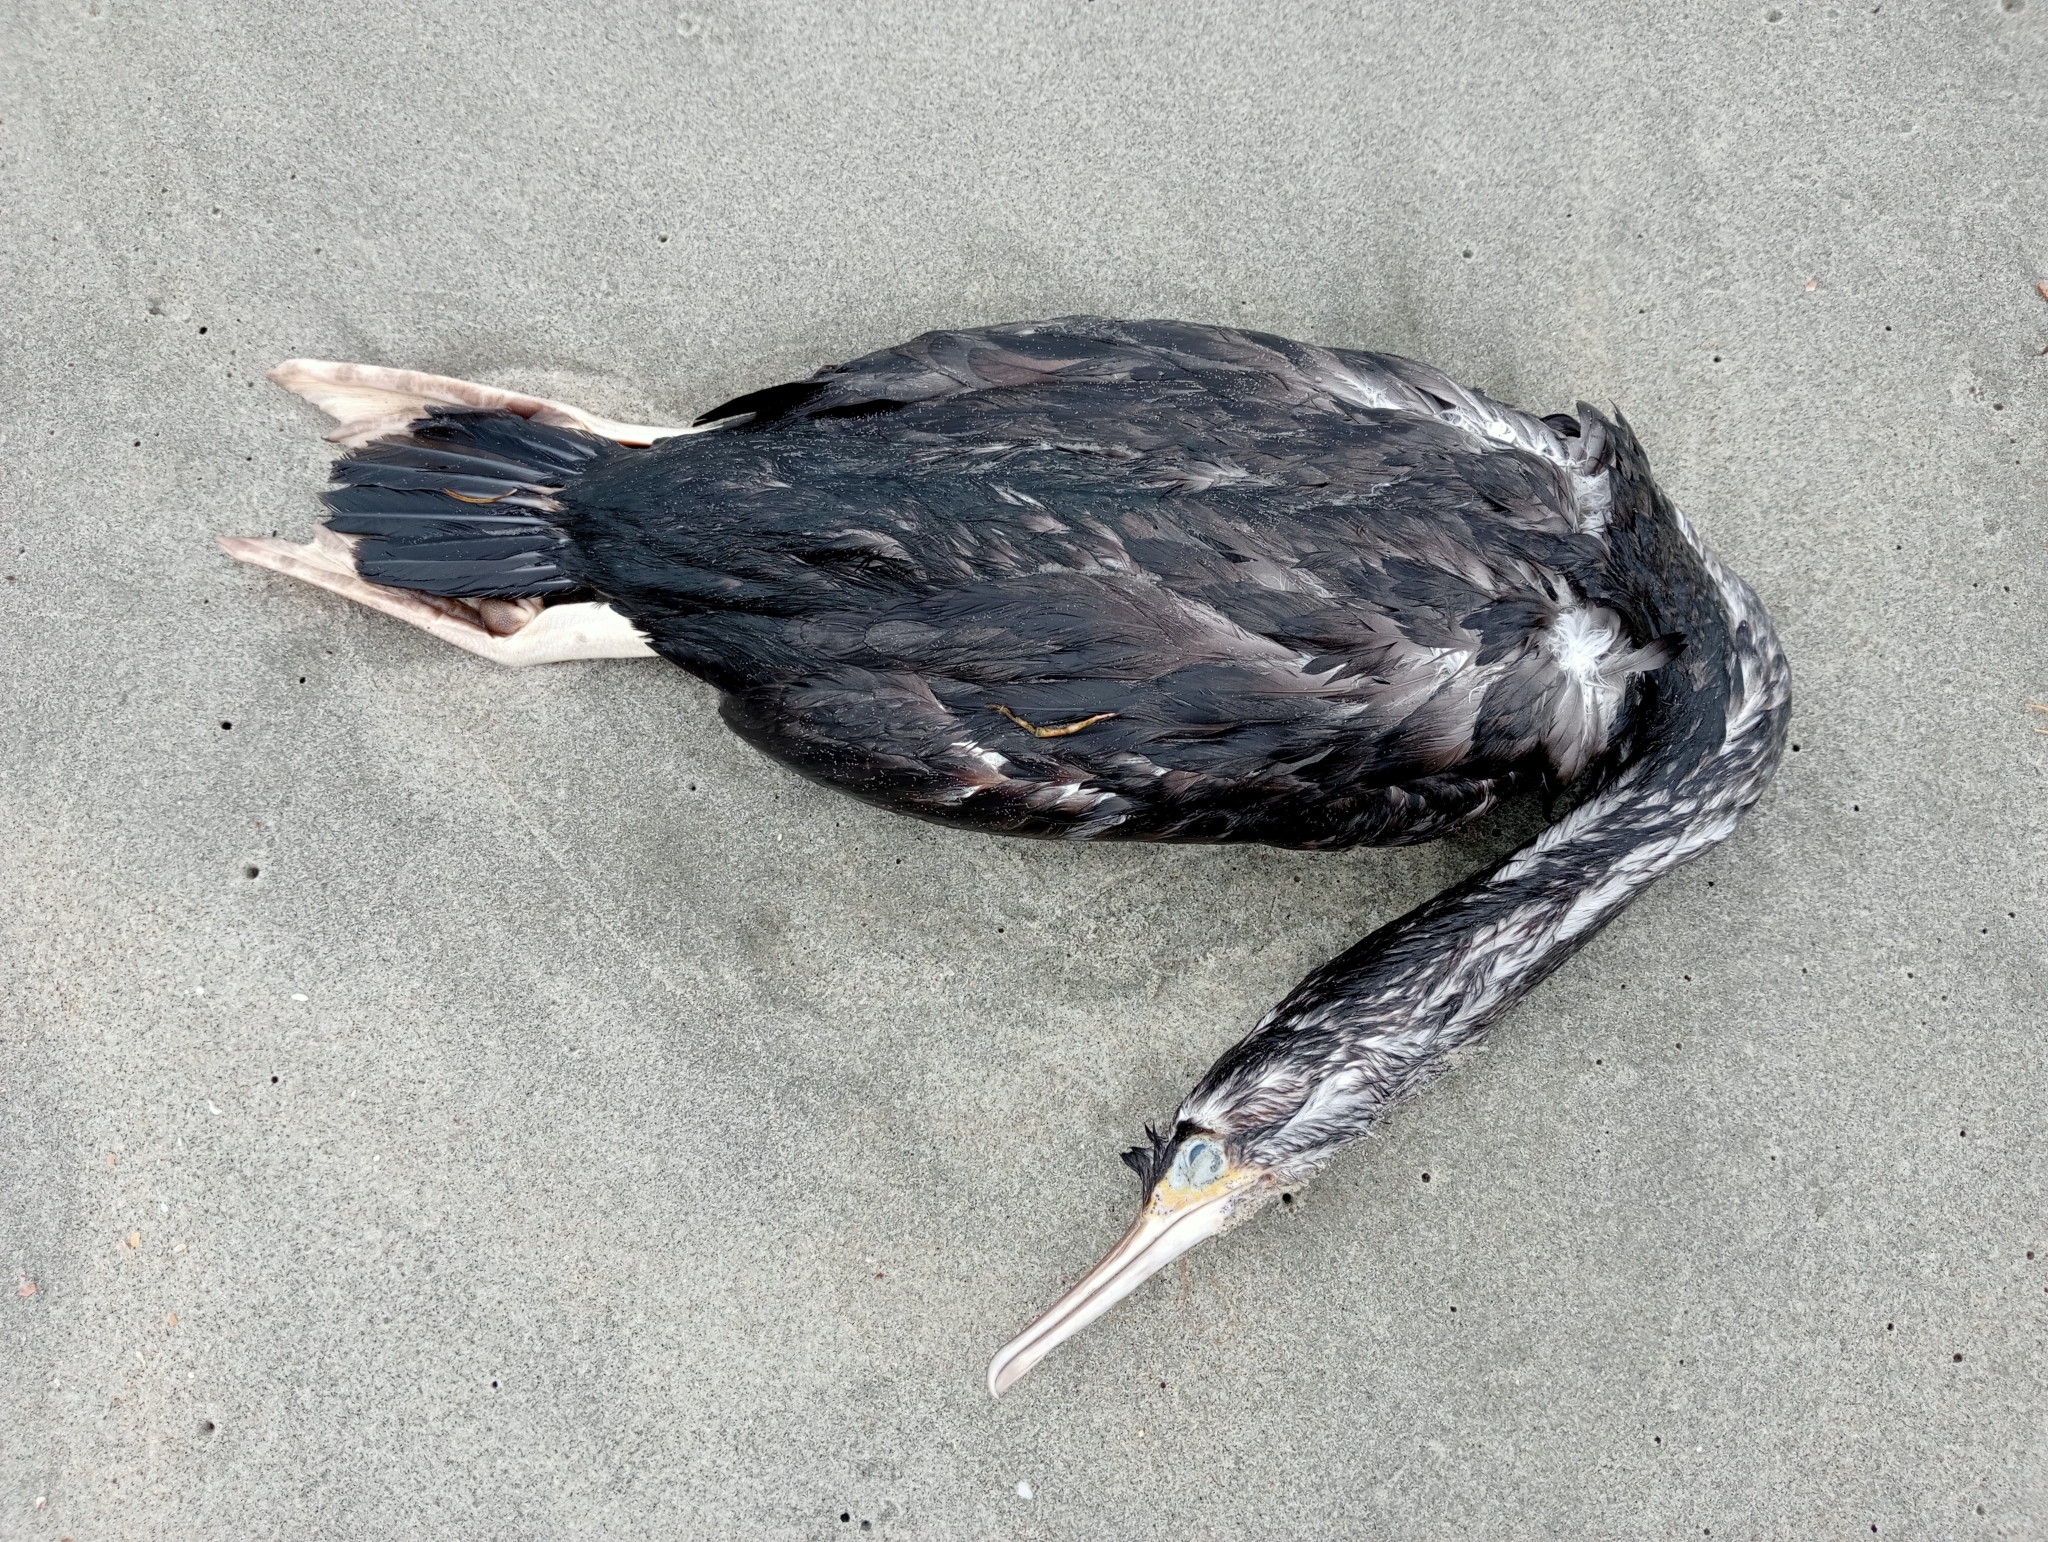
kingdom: Animalia
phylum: Chordata
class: Aves
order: Suliformes
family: Phalacrocoracidae
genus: Phalacrocorax
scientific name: Phalacrocorax punctatus
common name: Spotted shag
